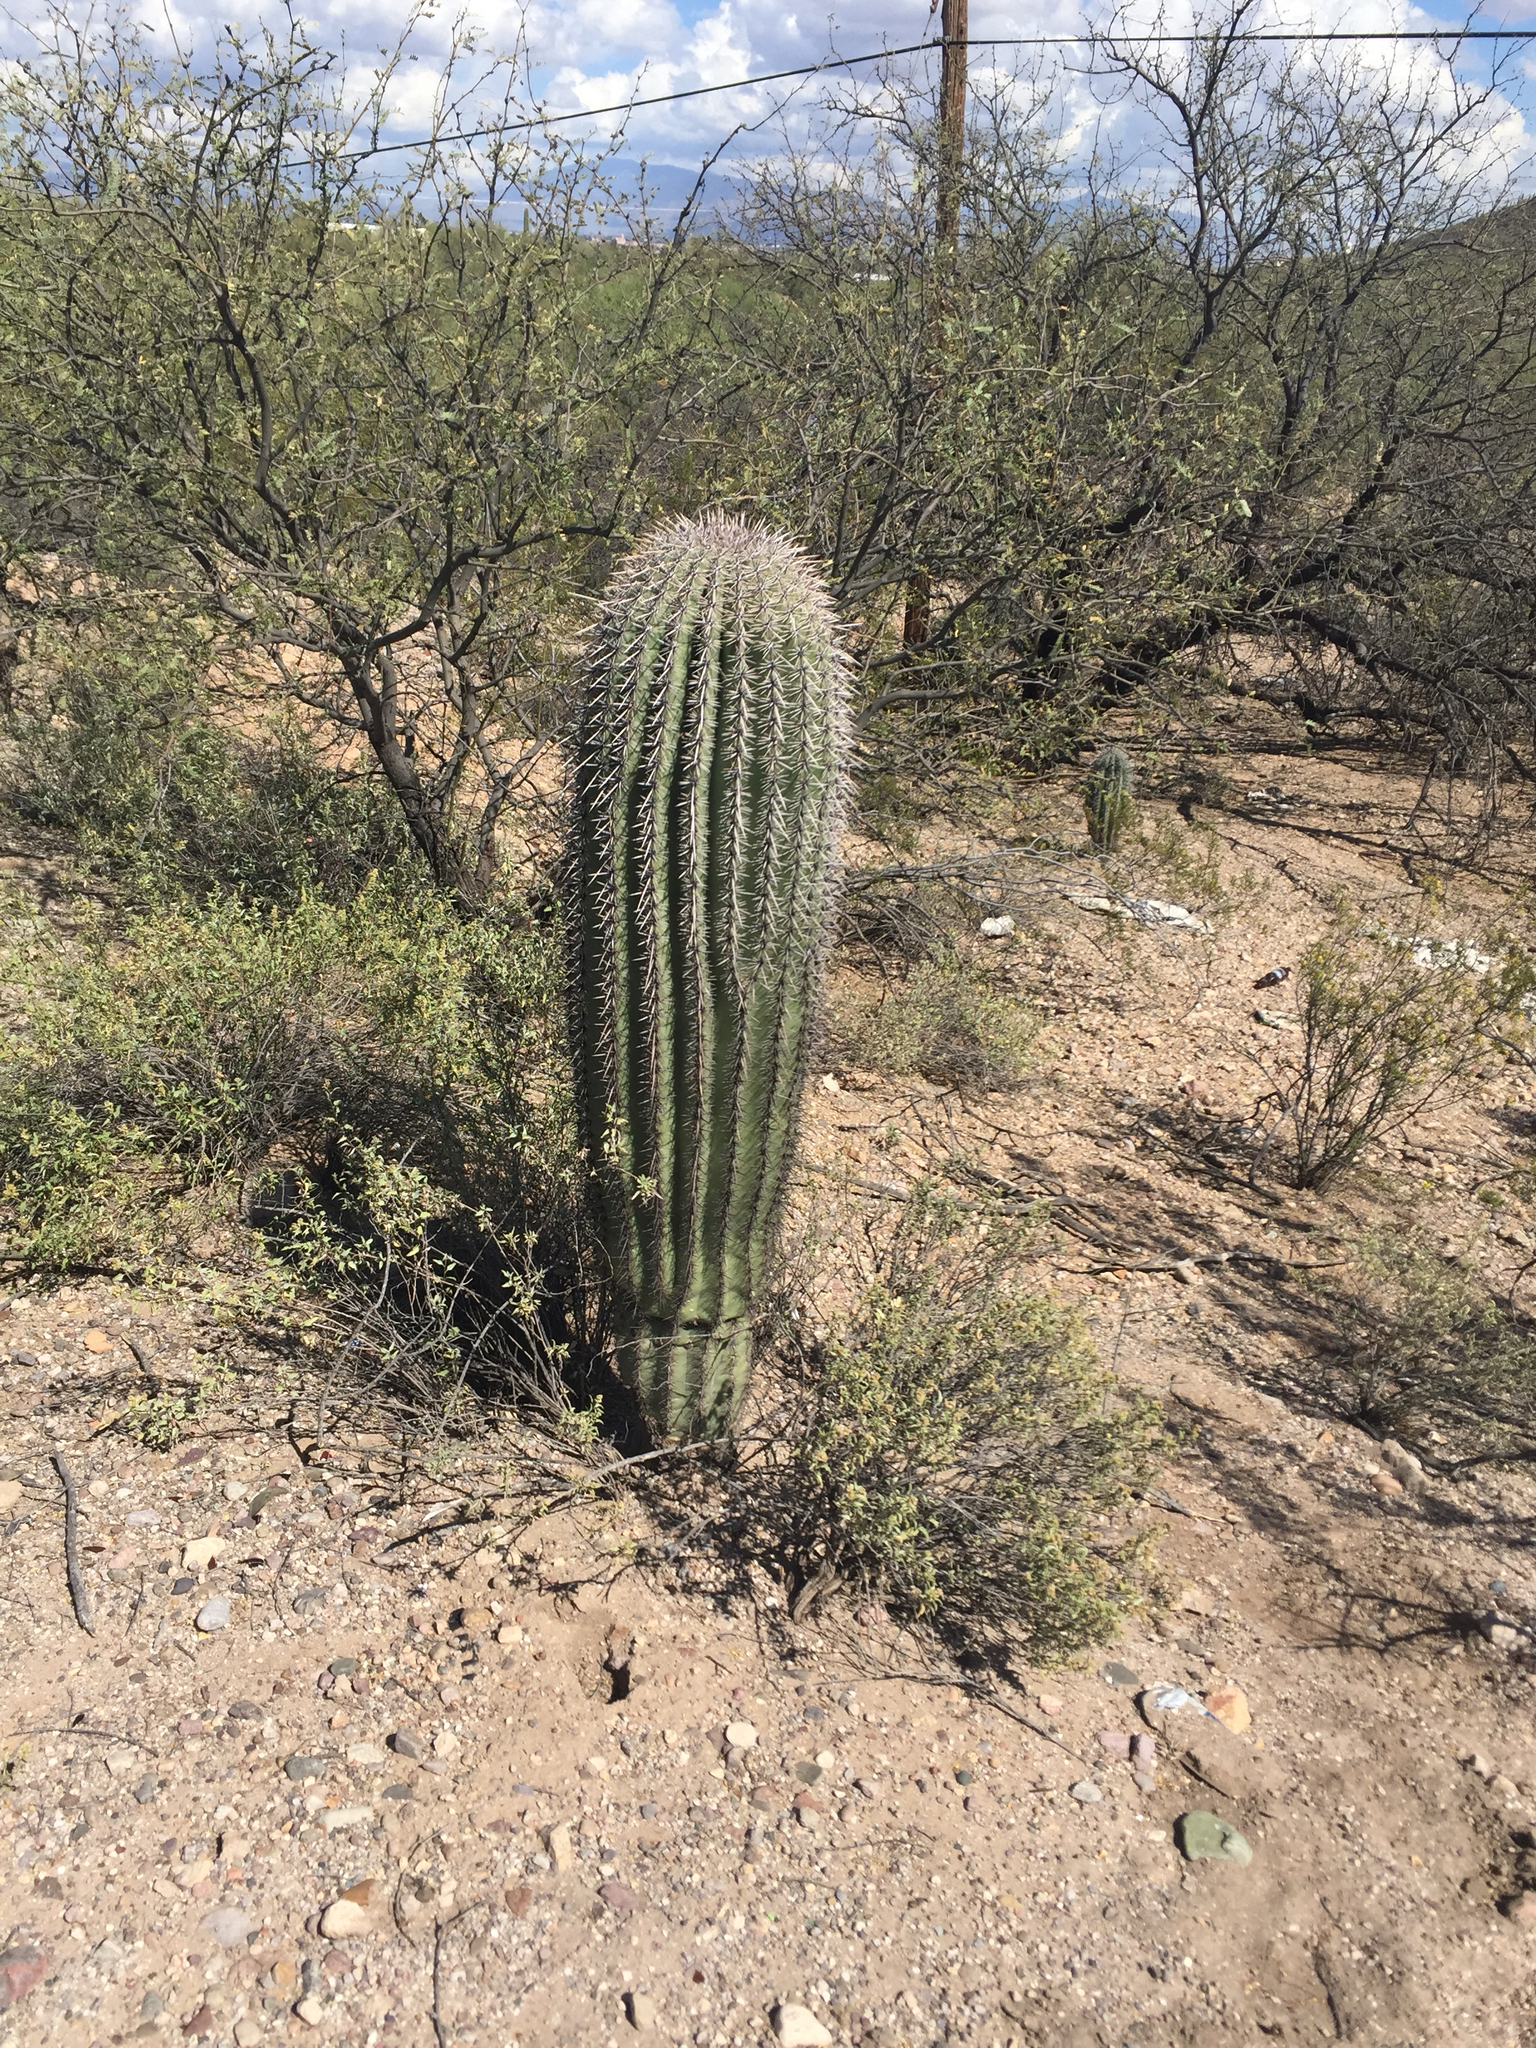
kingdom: Plantae
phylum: Tracheophyta
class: Magnoliopsida
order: Caryophyllales
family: Cactaceae
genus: Carnegiea
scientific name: Carnegiea gigantea
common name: Saguaro
